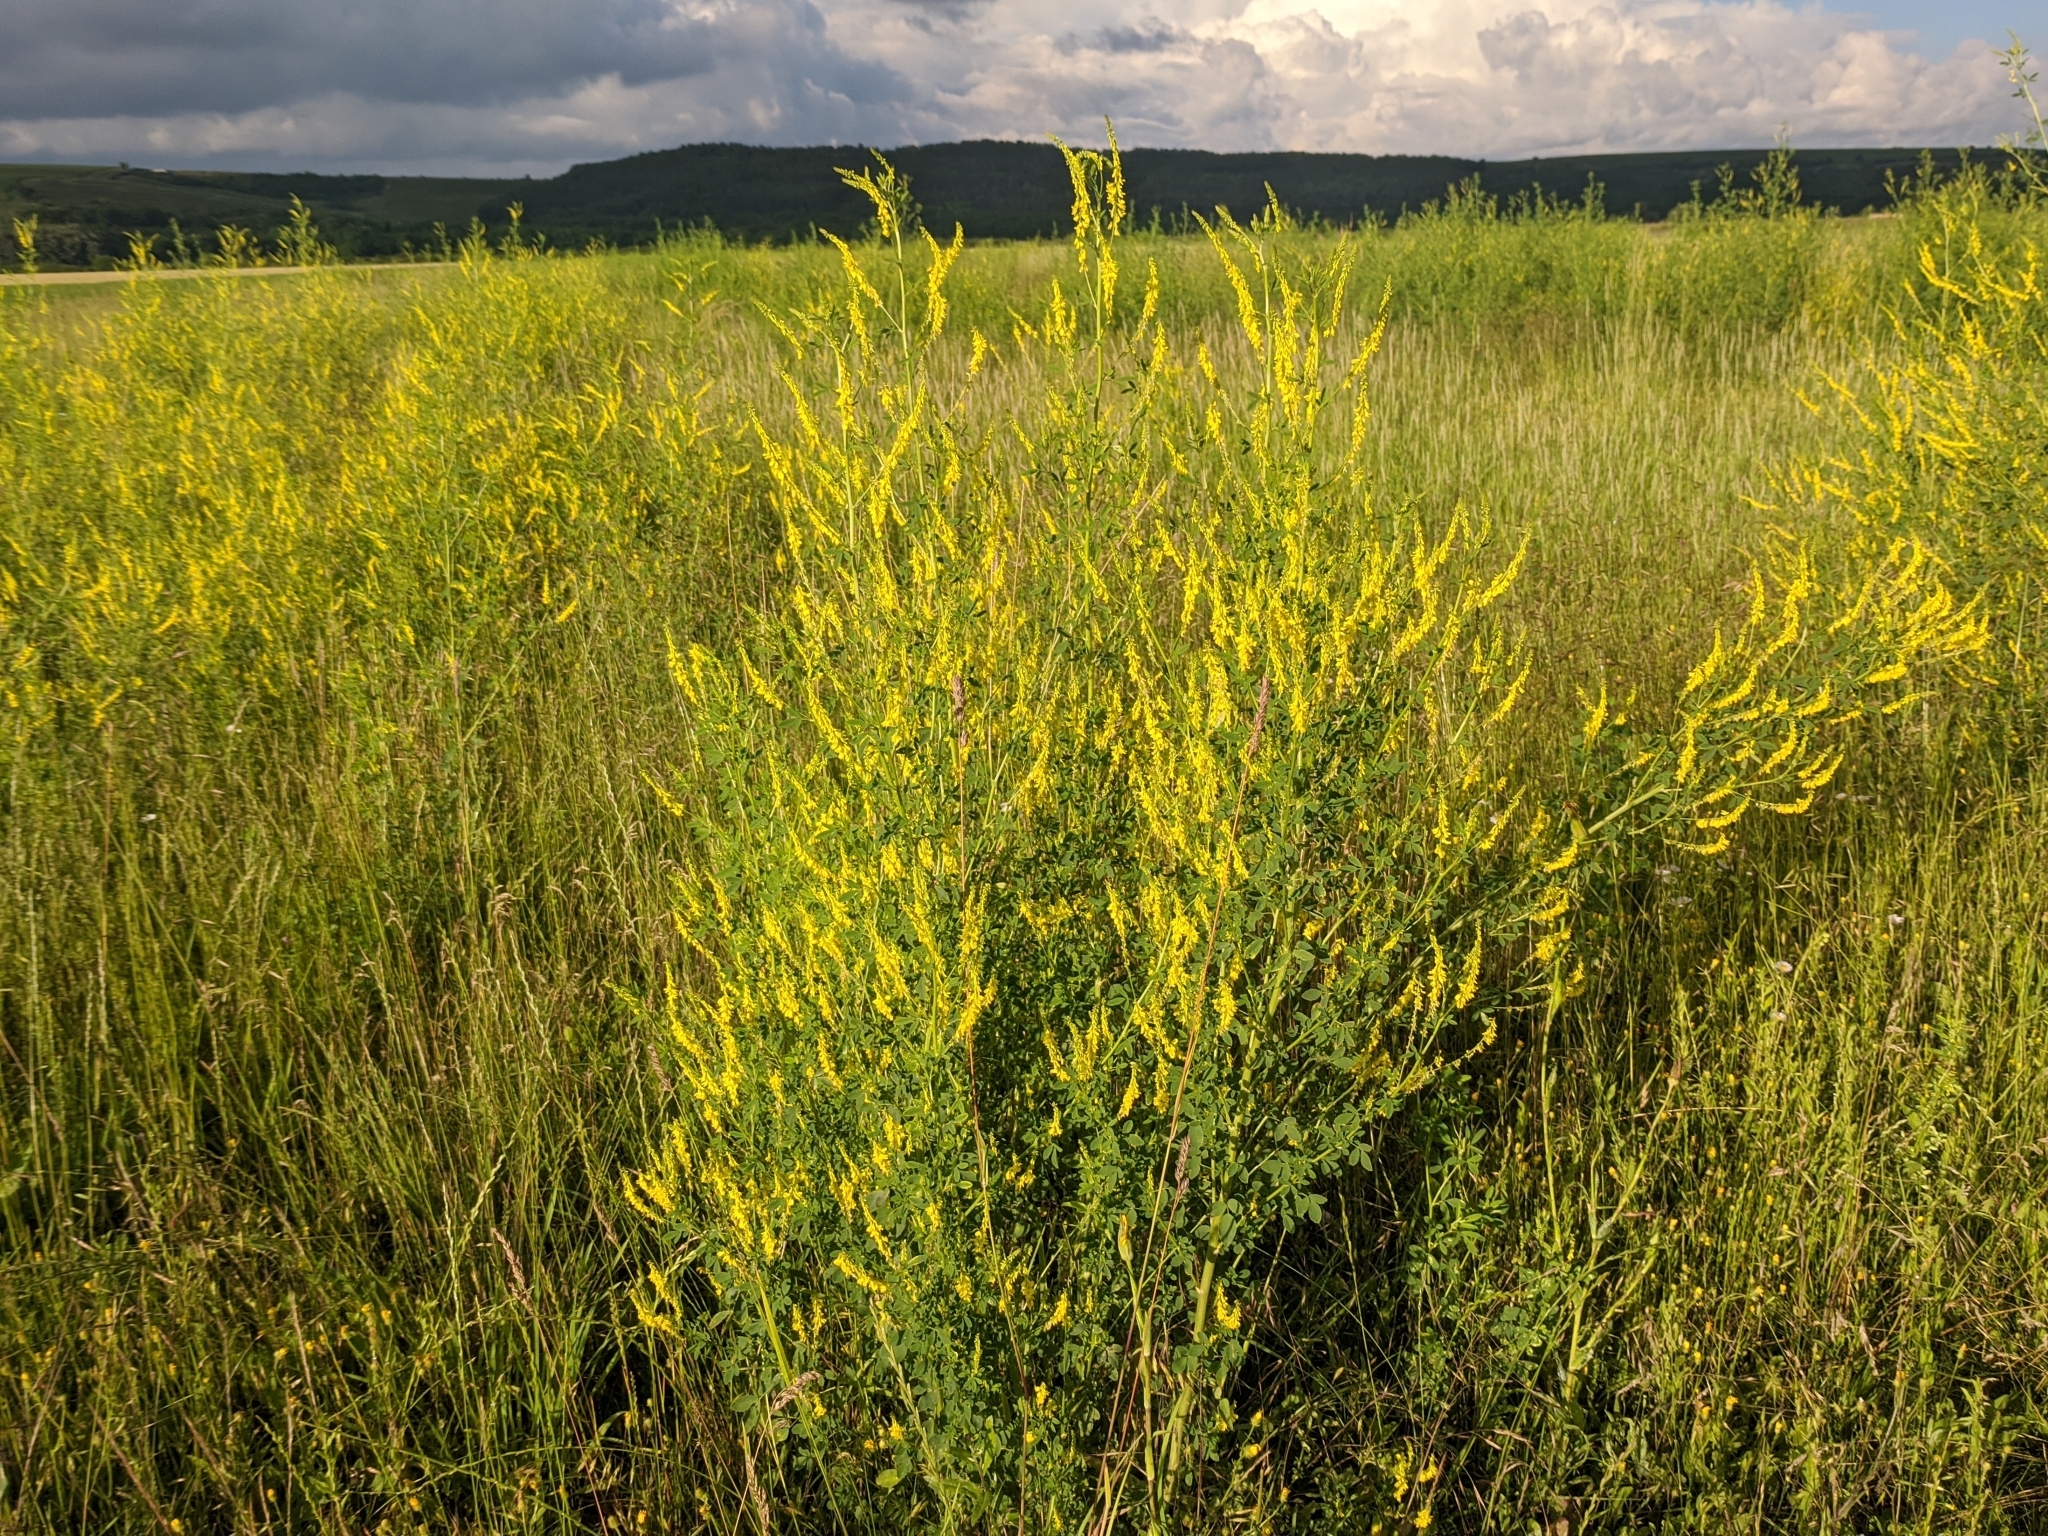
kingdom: Plantae
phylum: Tracheophyta
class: Magnoliopsida
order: Fabales
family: Fabaceae
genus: Melilotus
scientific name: Melilotus officinalis
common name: Sweetclover
